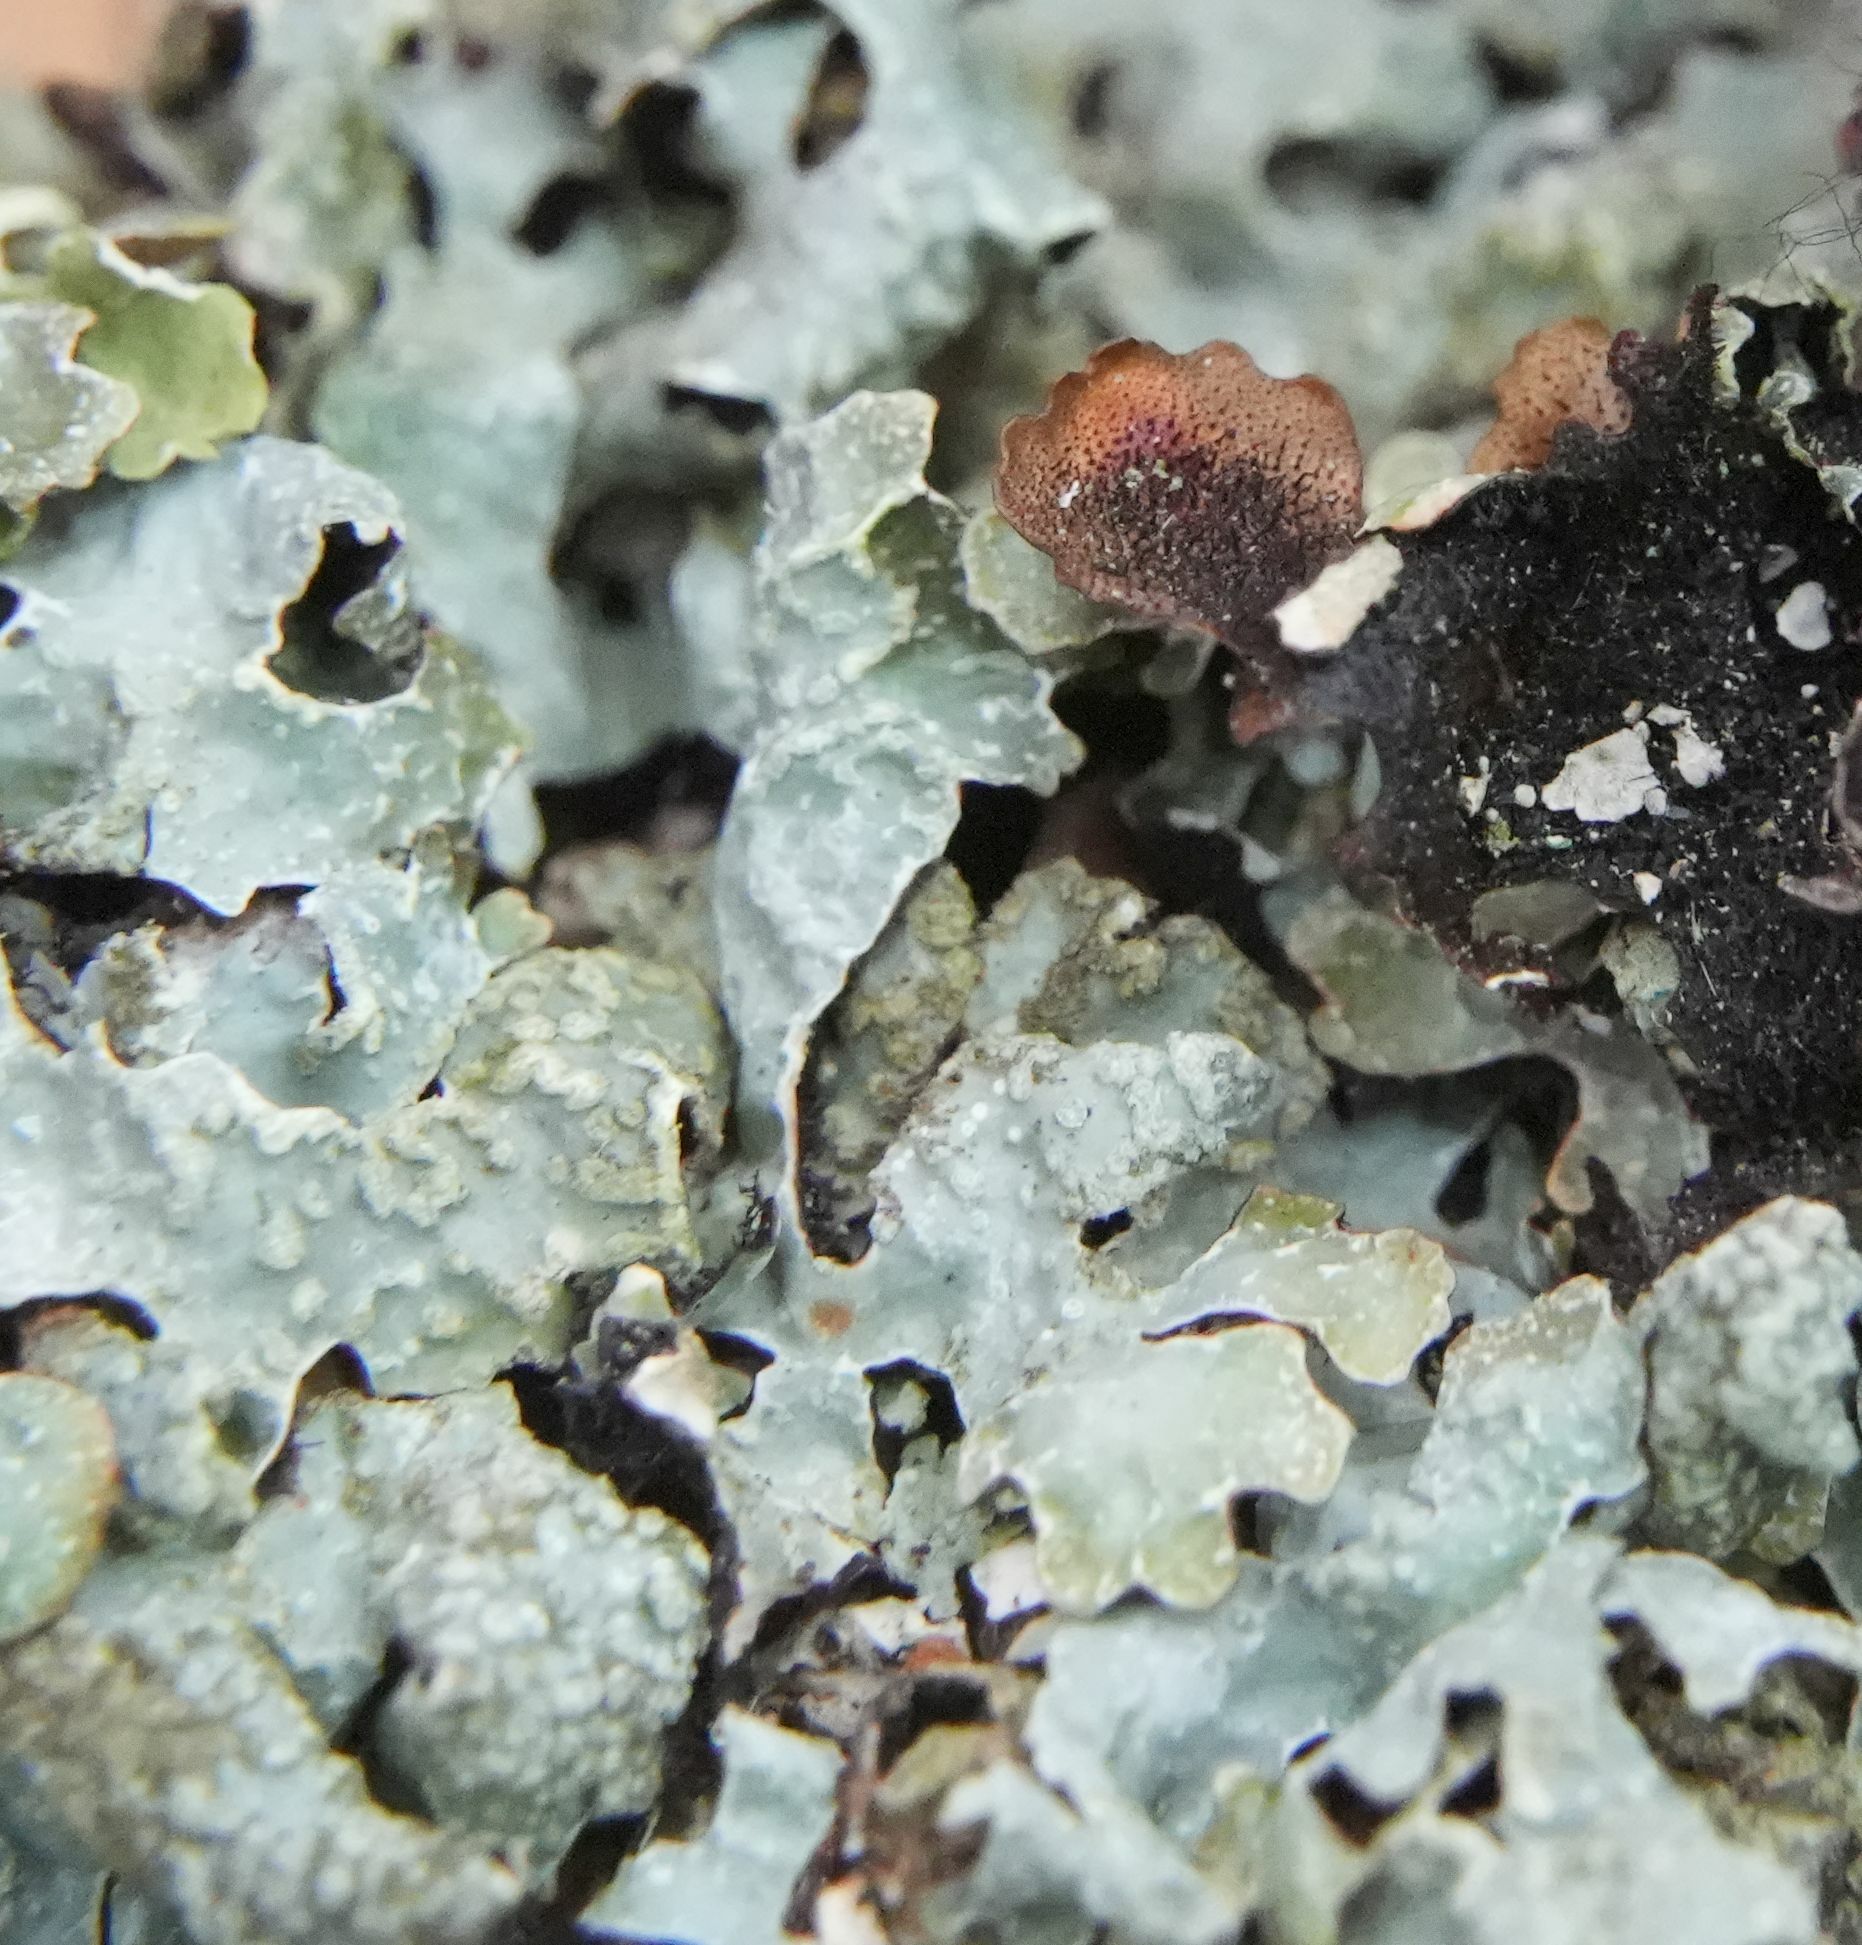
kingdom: Fungi
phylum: Ascomycota
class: Lecanoromycetes
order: Lecanorales
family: Parmeliaceae
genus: Parmelia
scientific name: Parmelia sulcata
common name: Netted shield lichen
